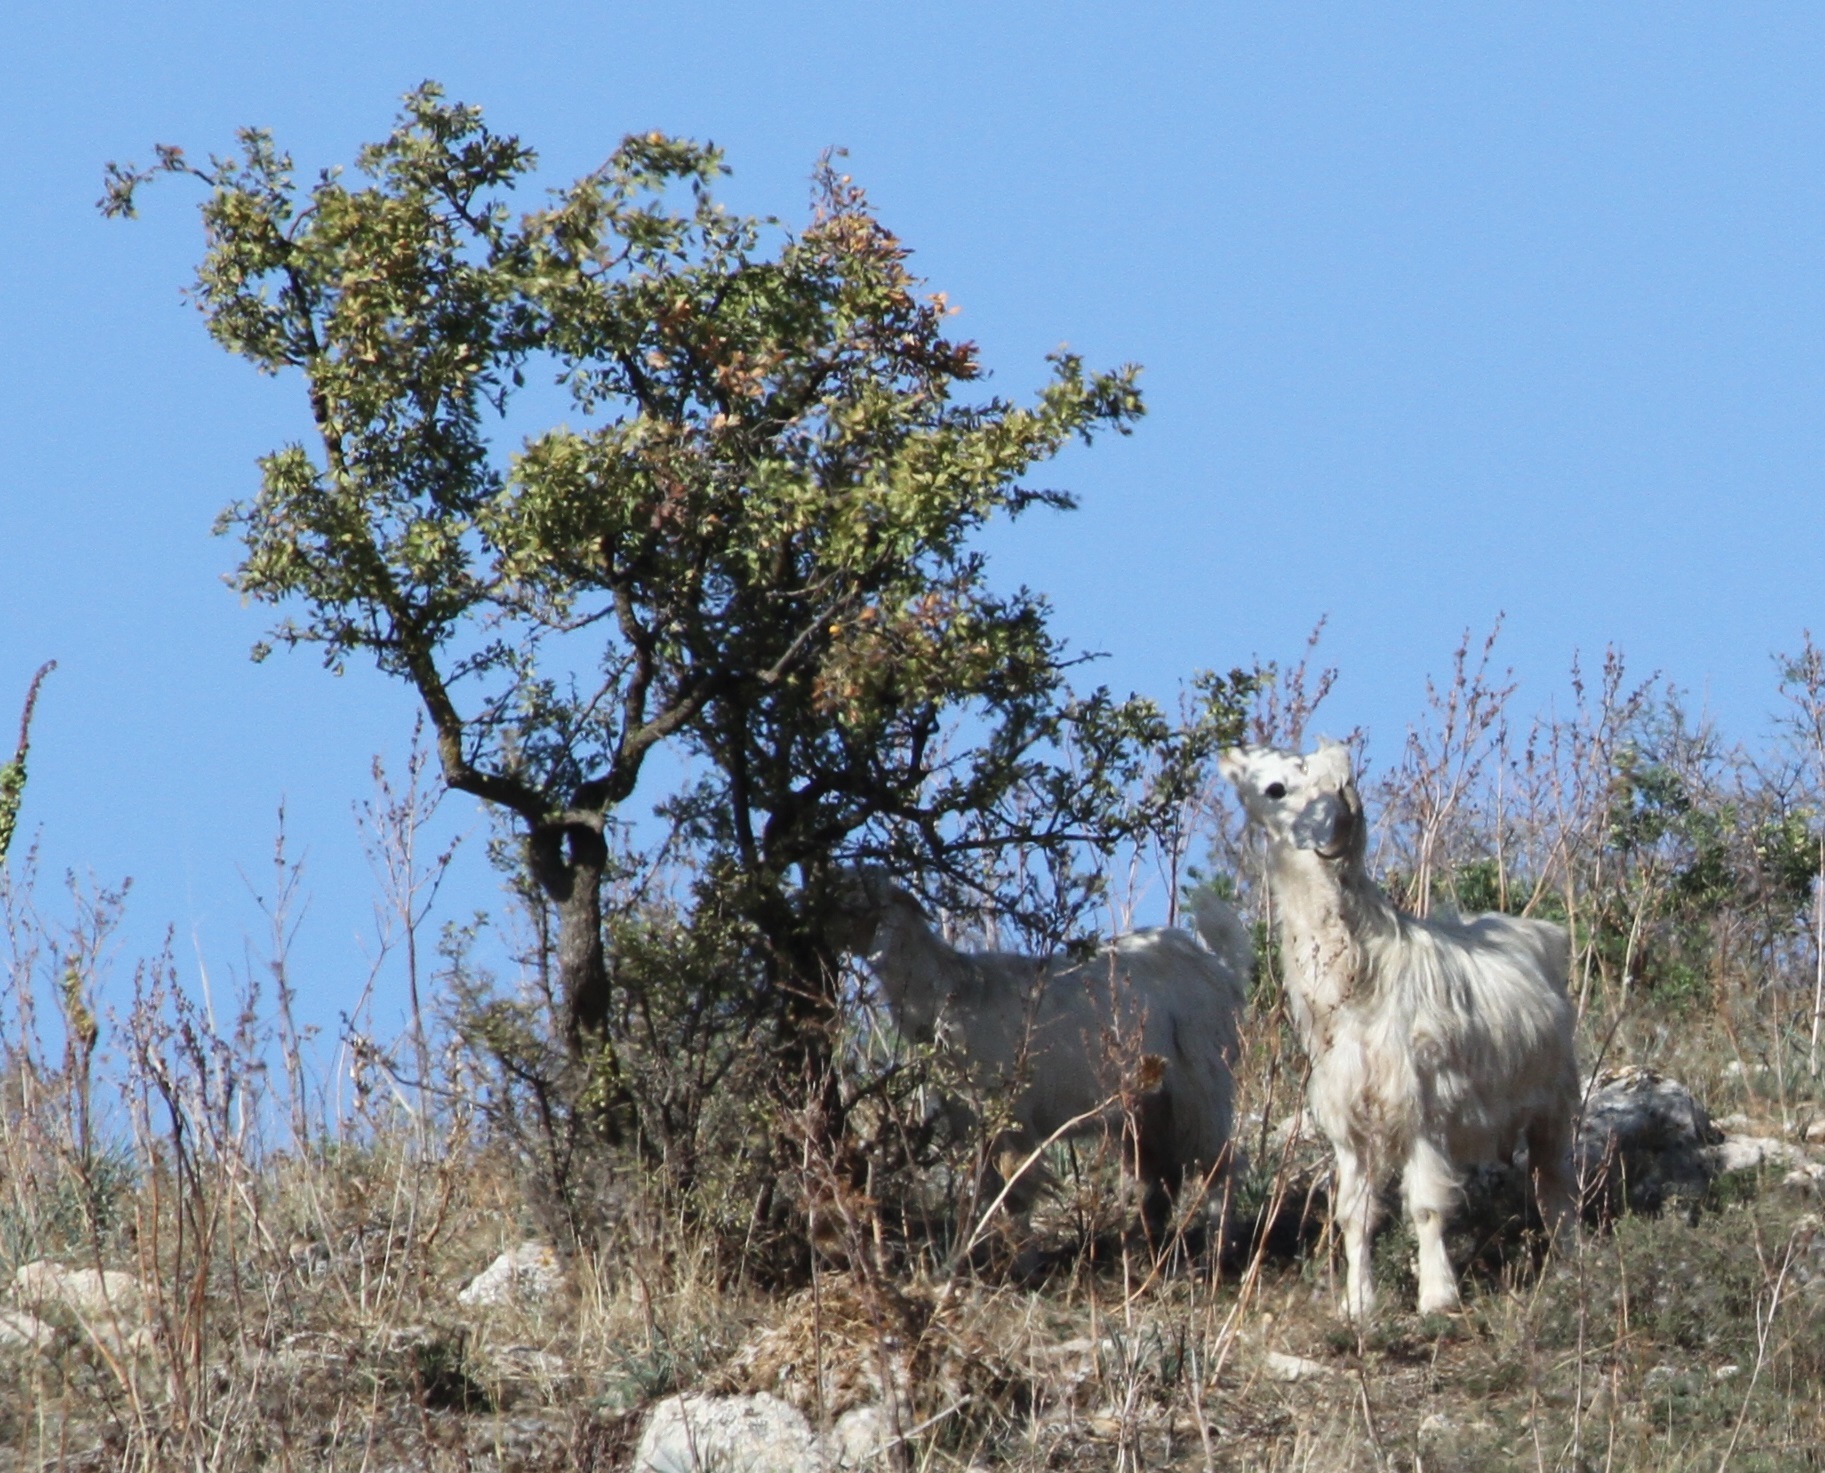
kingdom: Animalia
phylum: Chordata
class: Mammalia
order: Artiodactyla
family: Bovidae
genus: Capra
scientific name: Capra hircus
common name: Domestic goat
